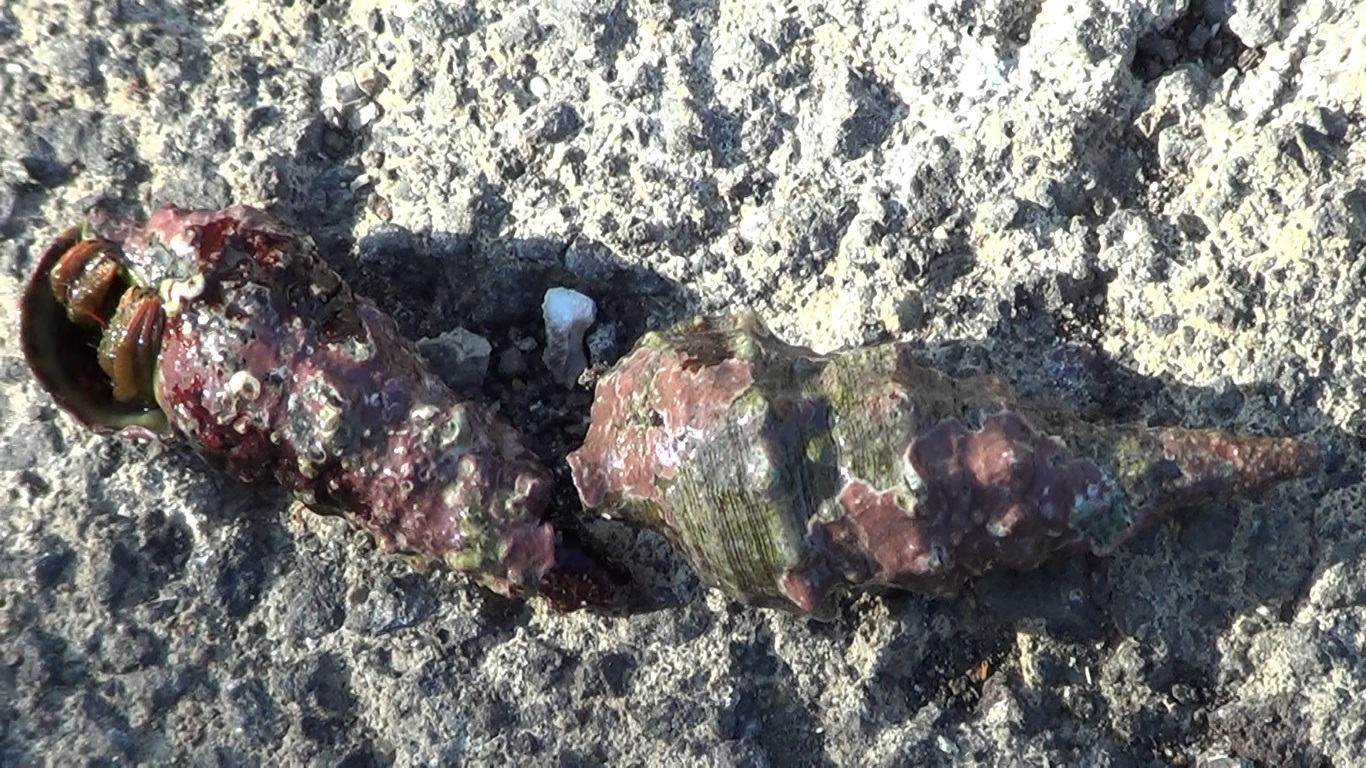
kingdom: Animalia
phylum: Arthropoda
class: Malacostraca
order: Decapoda
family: Diogenidae
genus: Clibanarius
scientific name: Clibanarius erythropus
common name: Hermit crab
